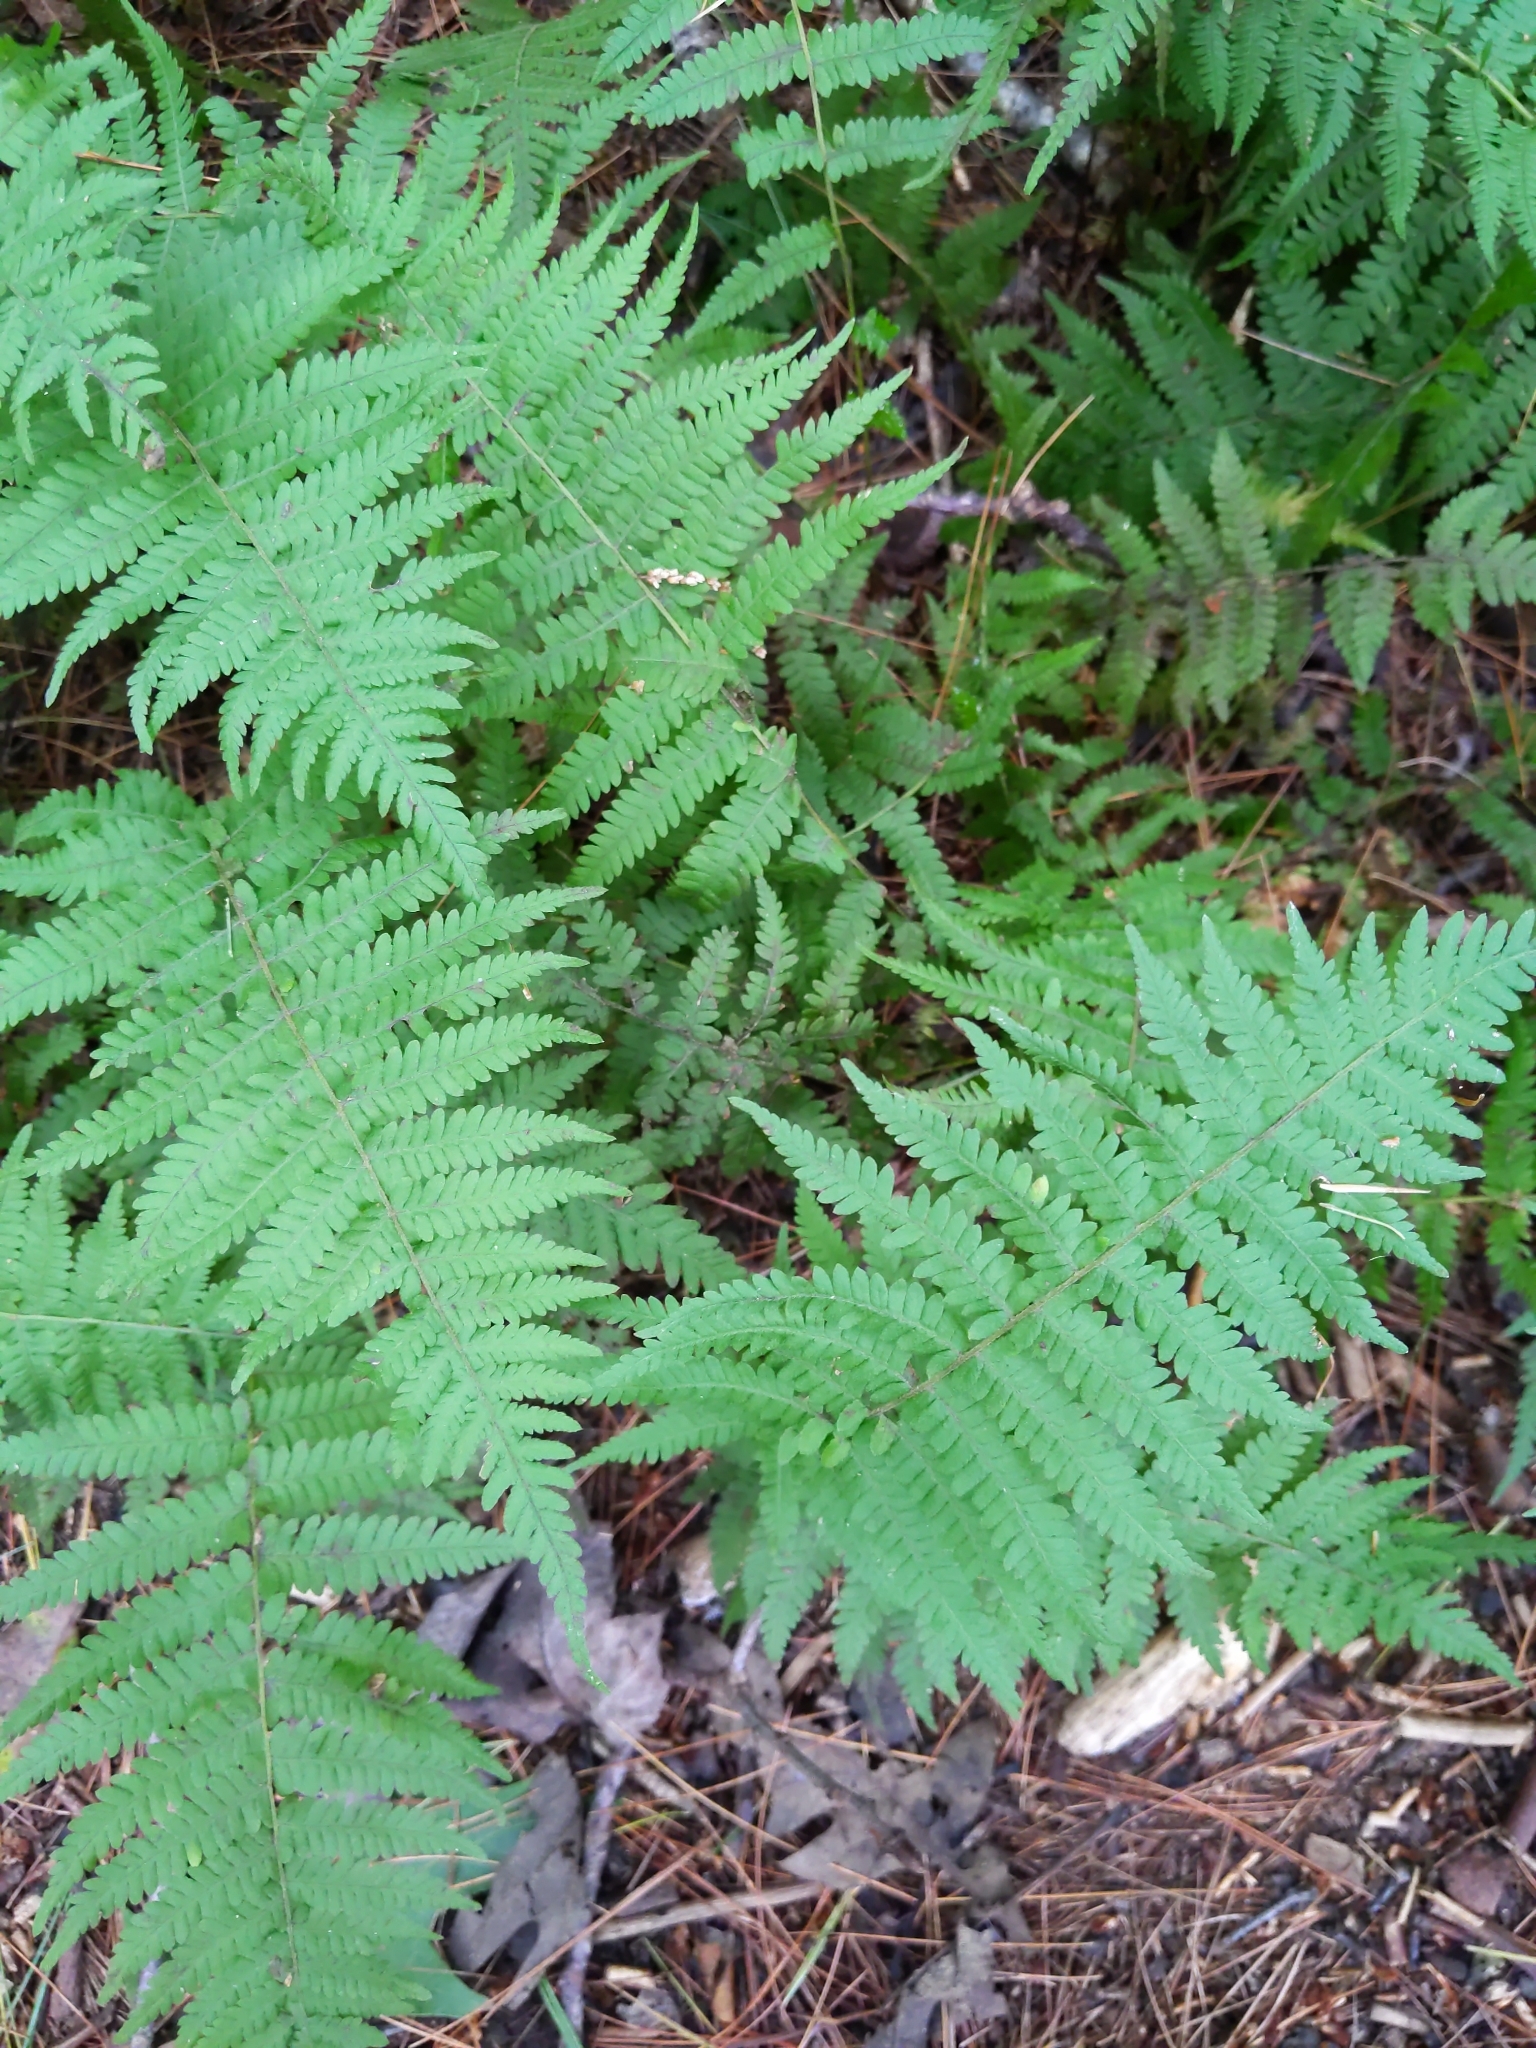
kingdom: Plantae
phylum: Tracheophyta
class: Polypodiopsida
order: Polypodiales
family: Thelypteridaceae
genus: Amauropelta
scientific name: Amauropelta noveboracensis
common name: New york fern
